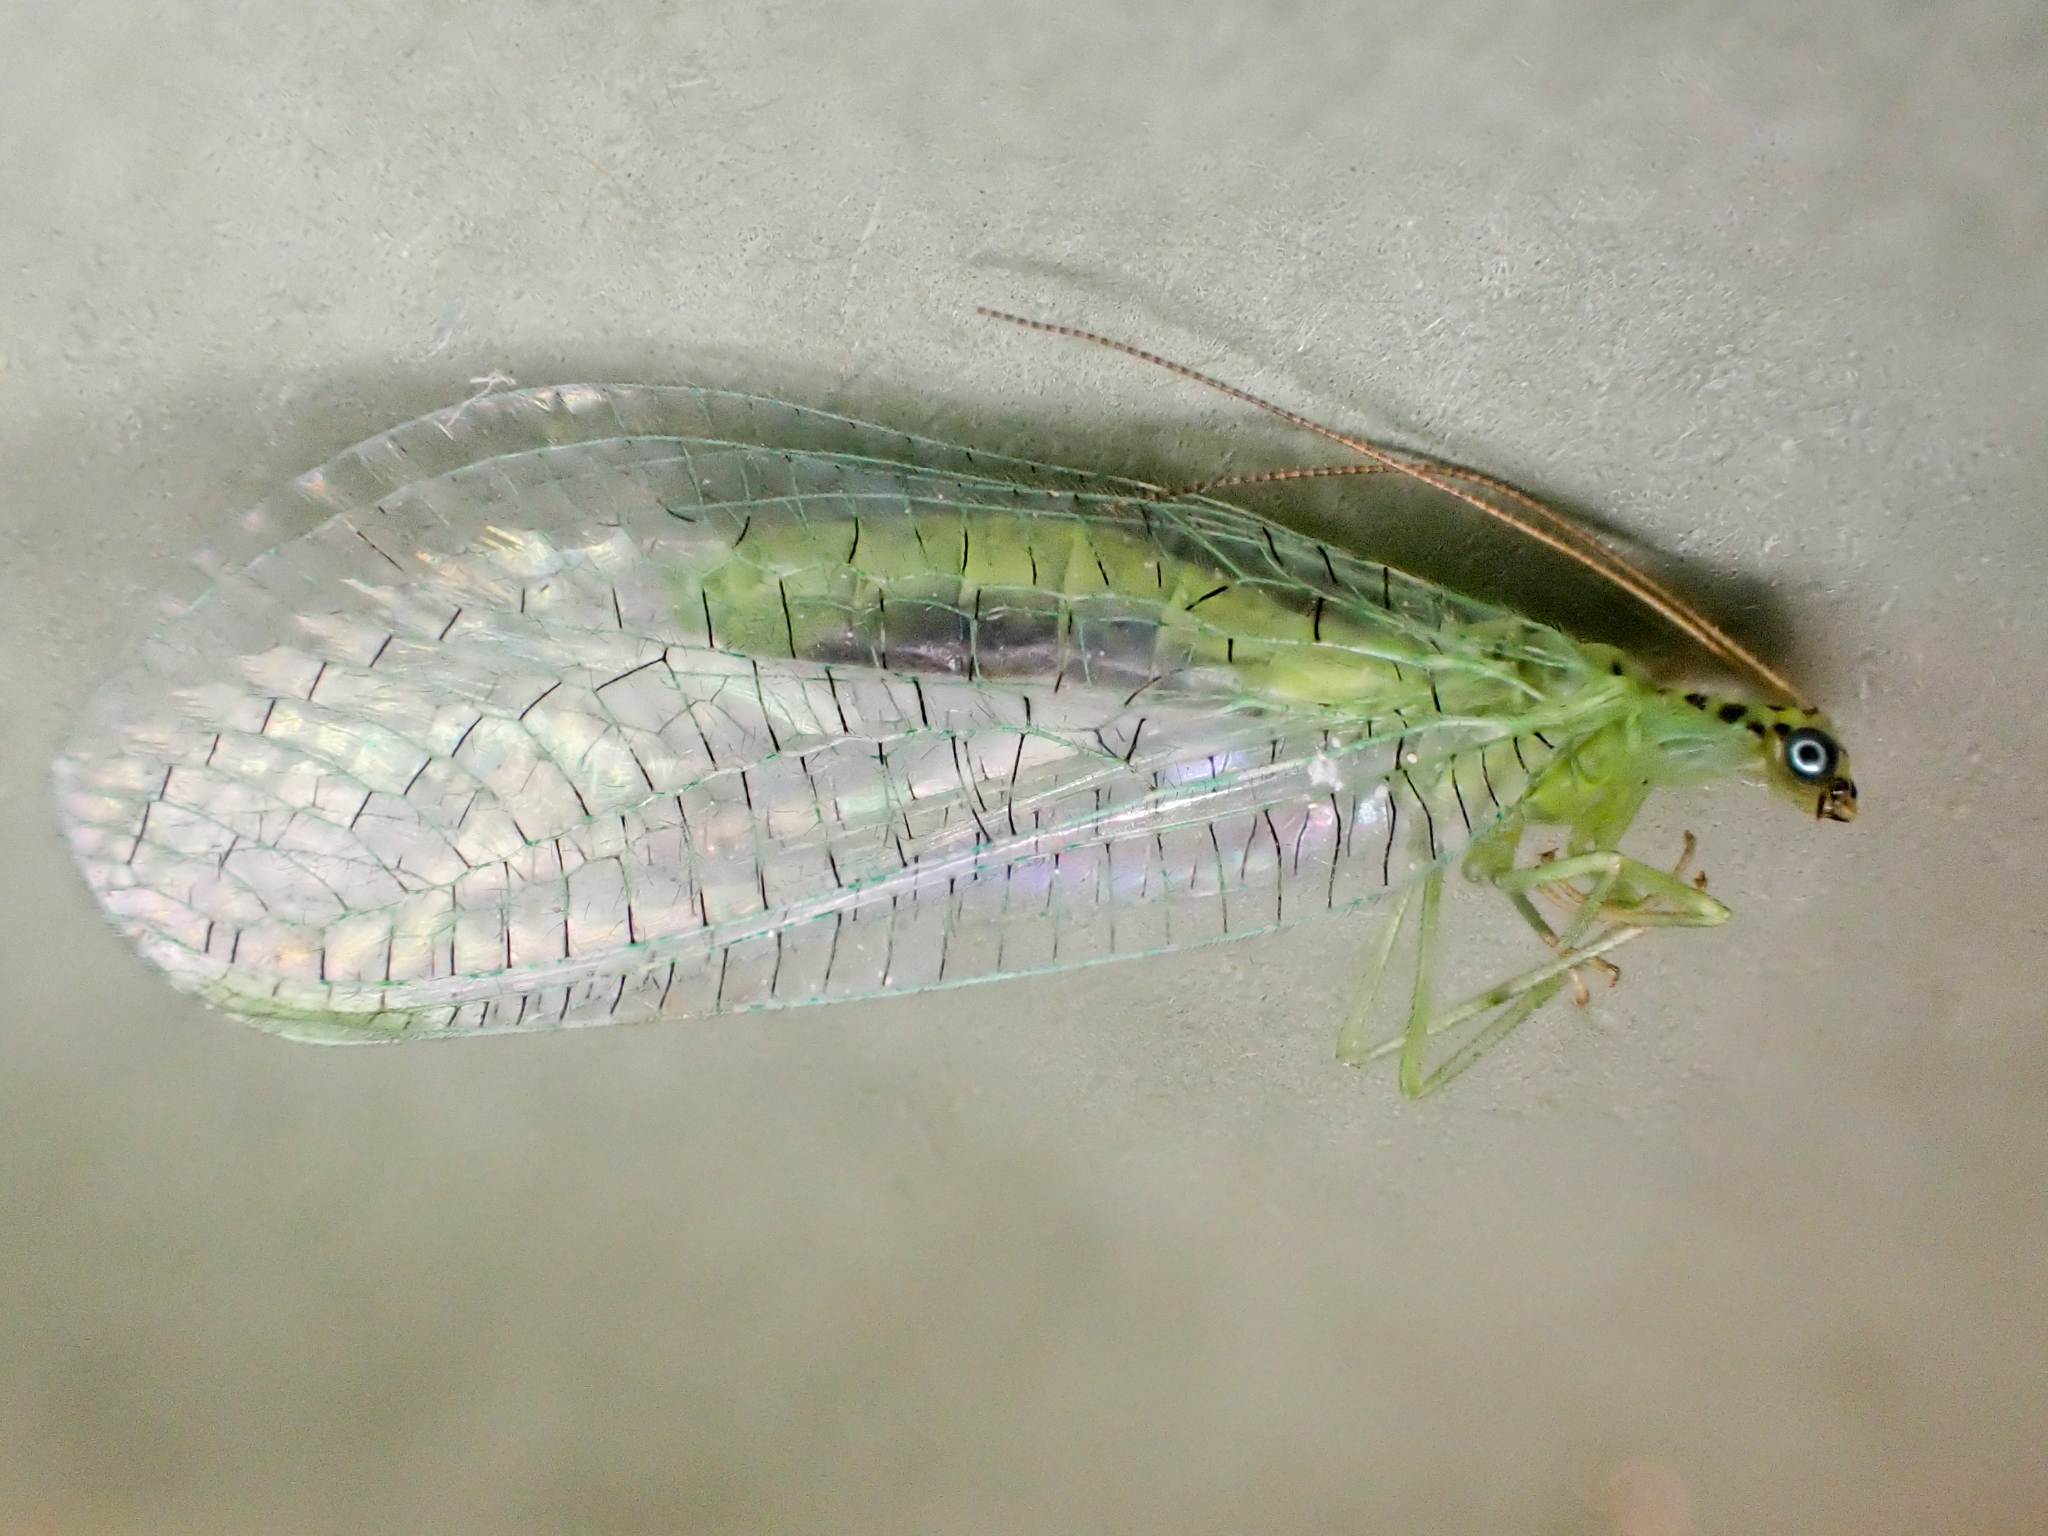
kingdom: Animalia
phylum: Arthropoda
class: Insecta
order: Neuroptera
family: Chrysopidae
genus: Chrysopa
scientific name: Chrysopa chi
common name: X-marked green lacewing
